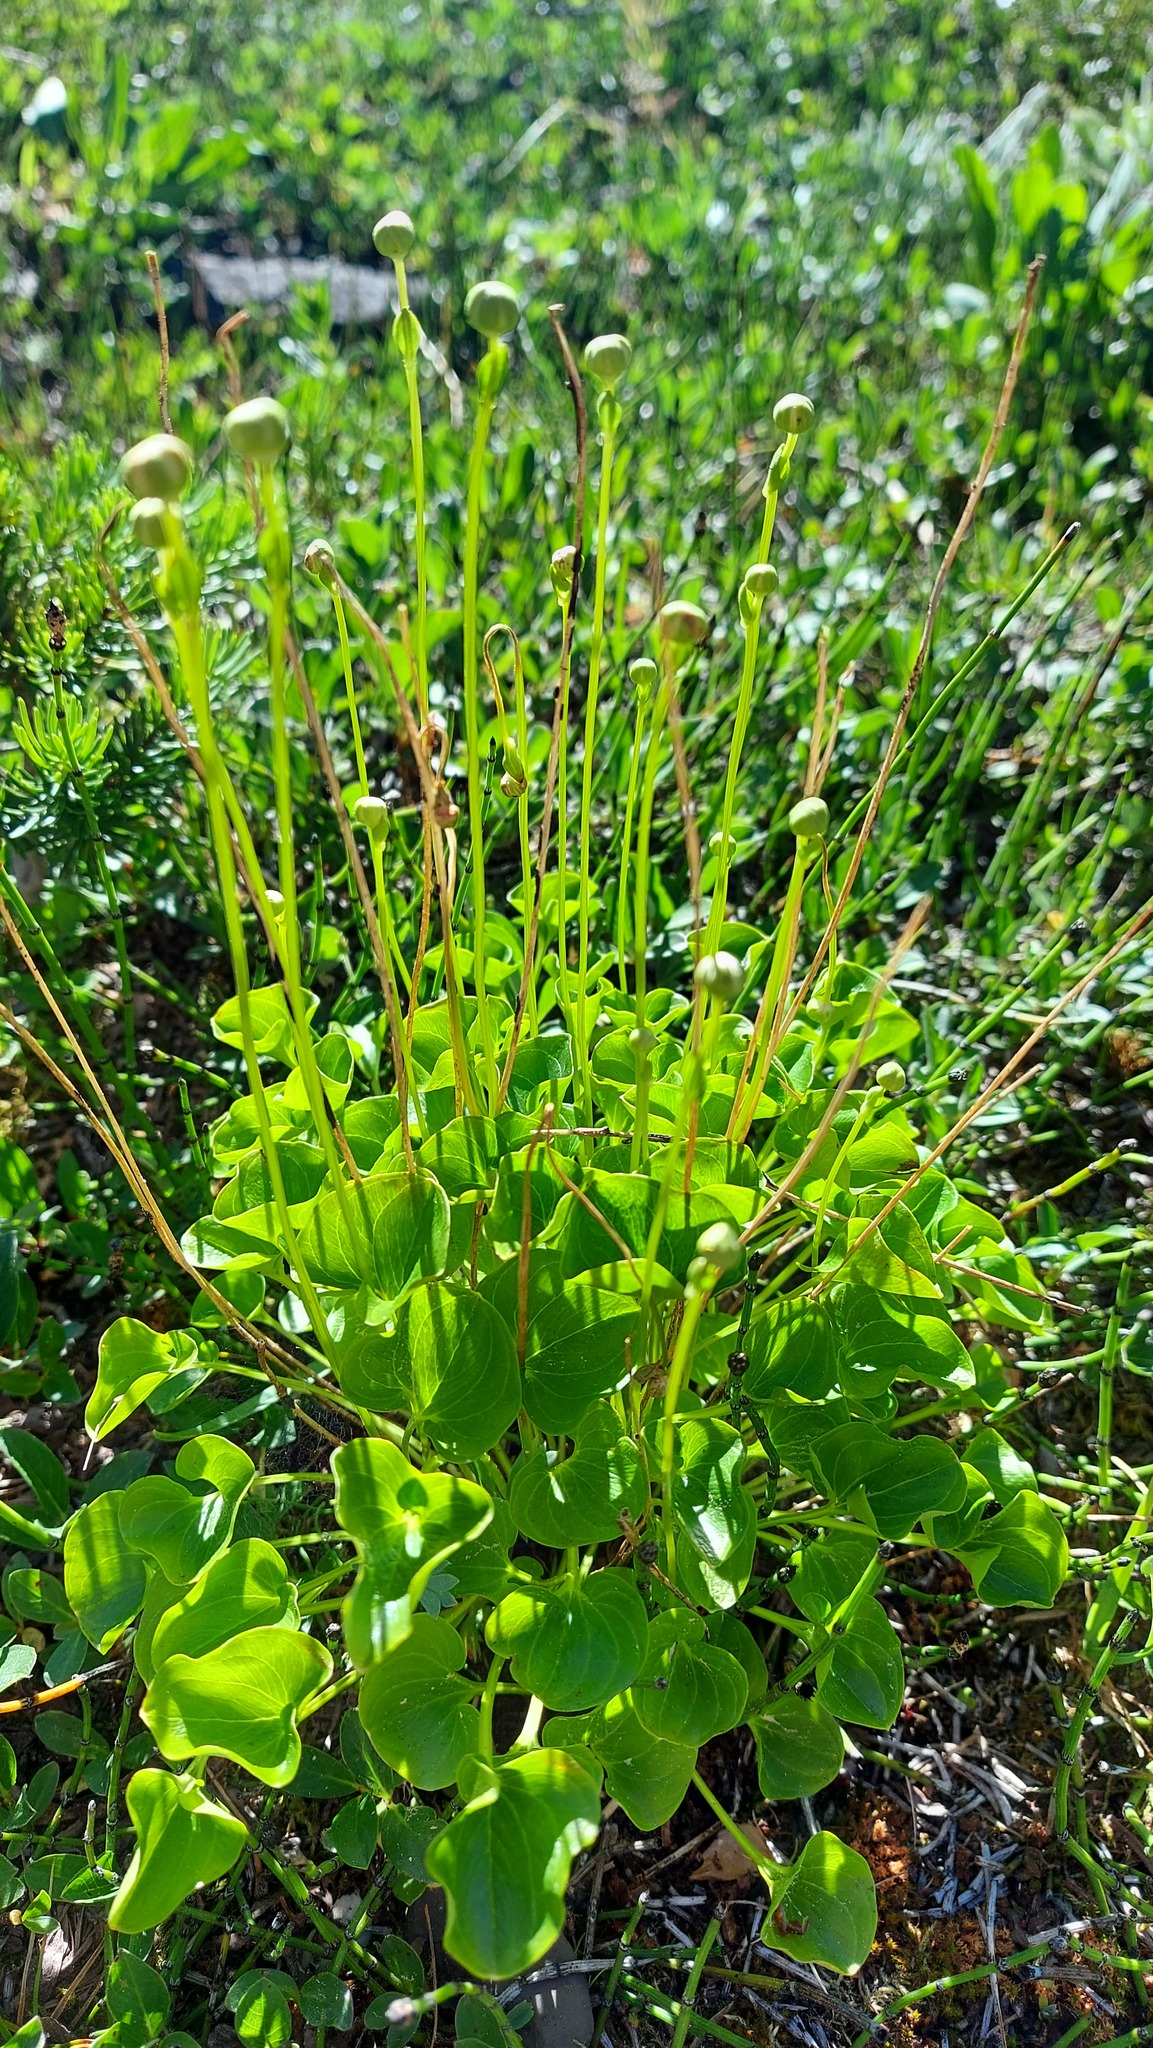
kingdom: Plantae
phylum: Tracheophyta
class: Magnoliopsida
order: Celastrales
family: Parnassiaceae
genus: Parnassia
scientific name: Parnassia fimbriata
